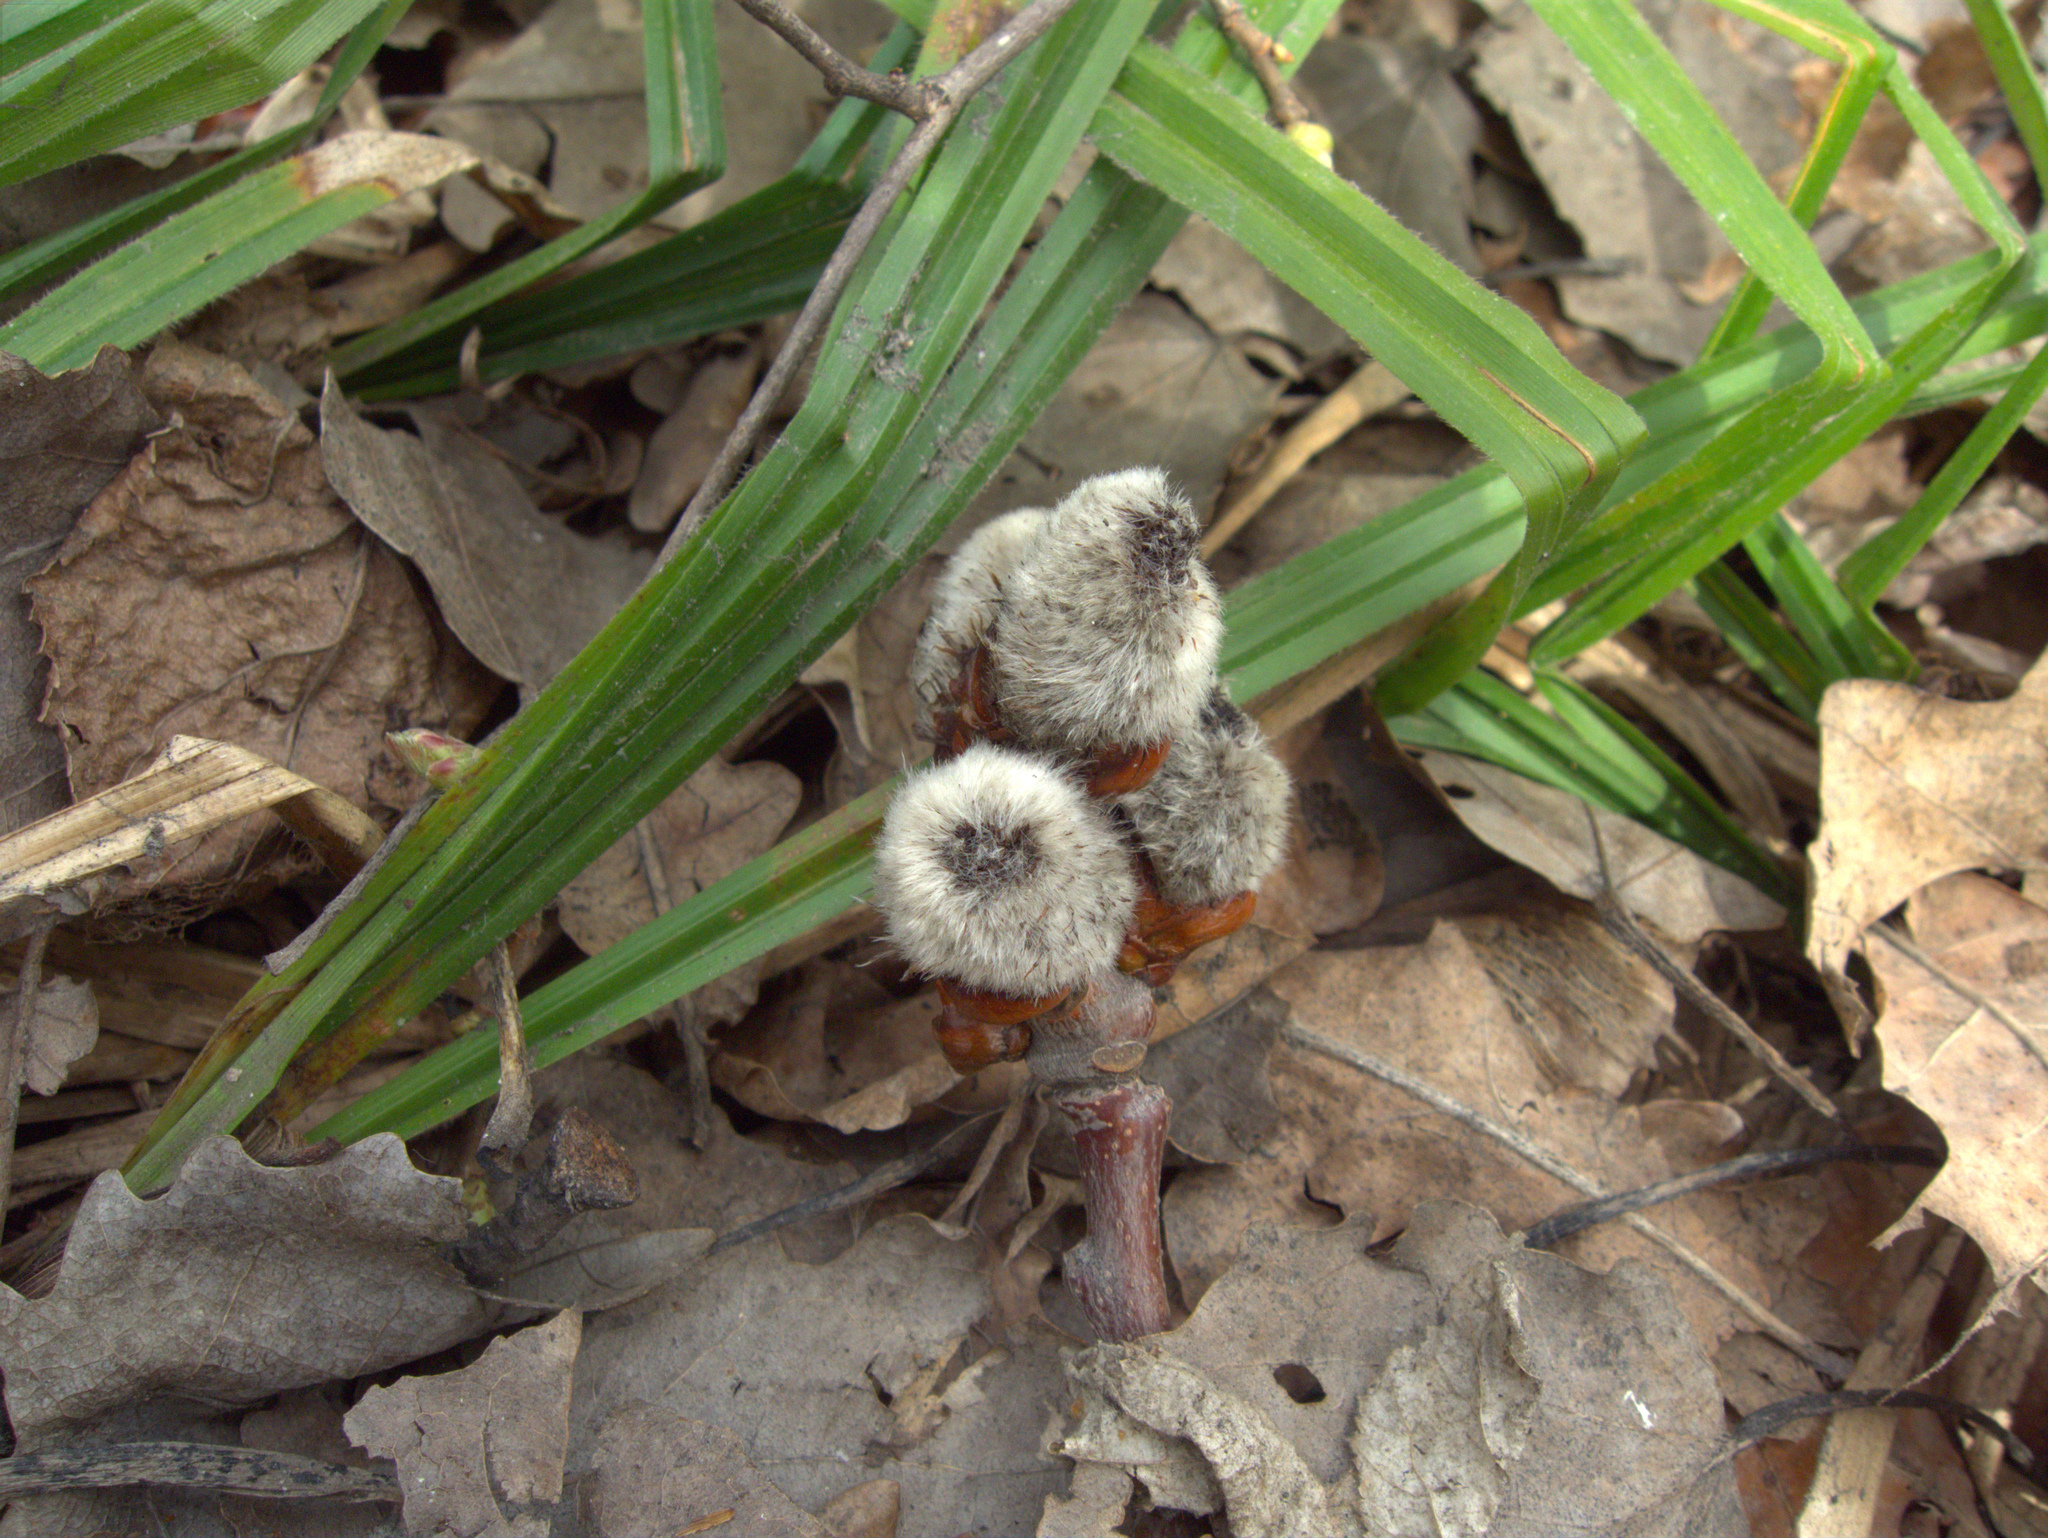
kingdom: Plantae
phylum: Tracheophyta
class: Magnoliopsida
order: Malpighiales
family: Salicaceae
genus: Populus
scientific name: Populus tremula
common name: European aspen
